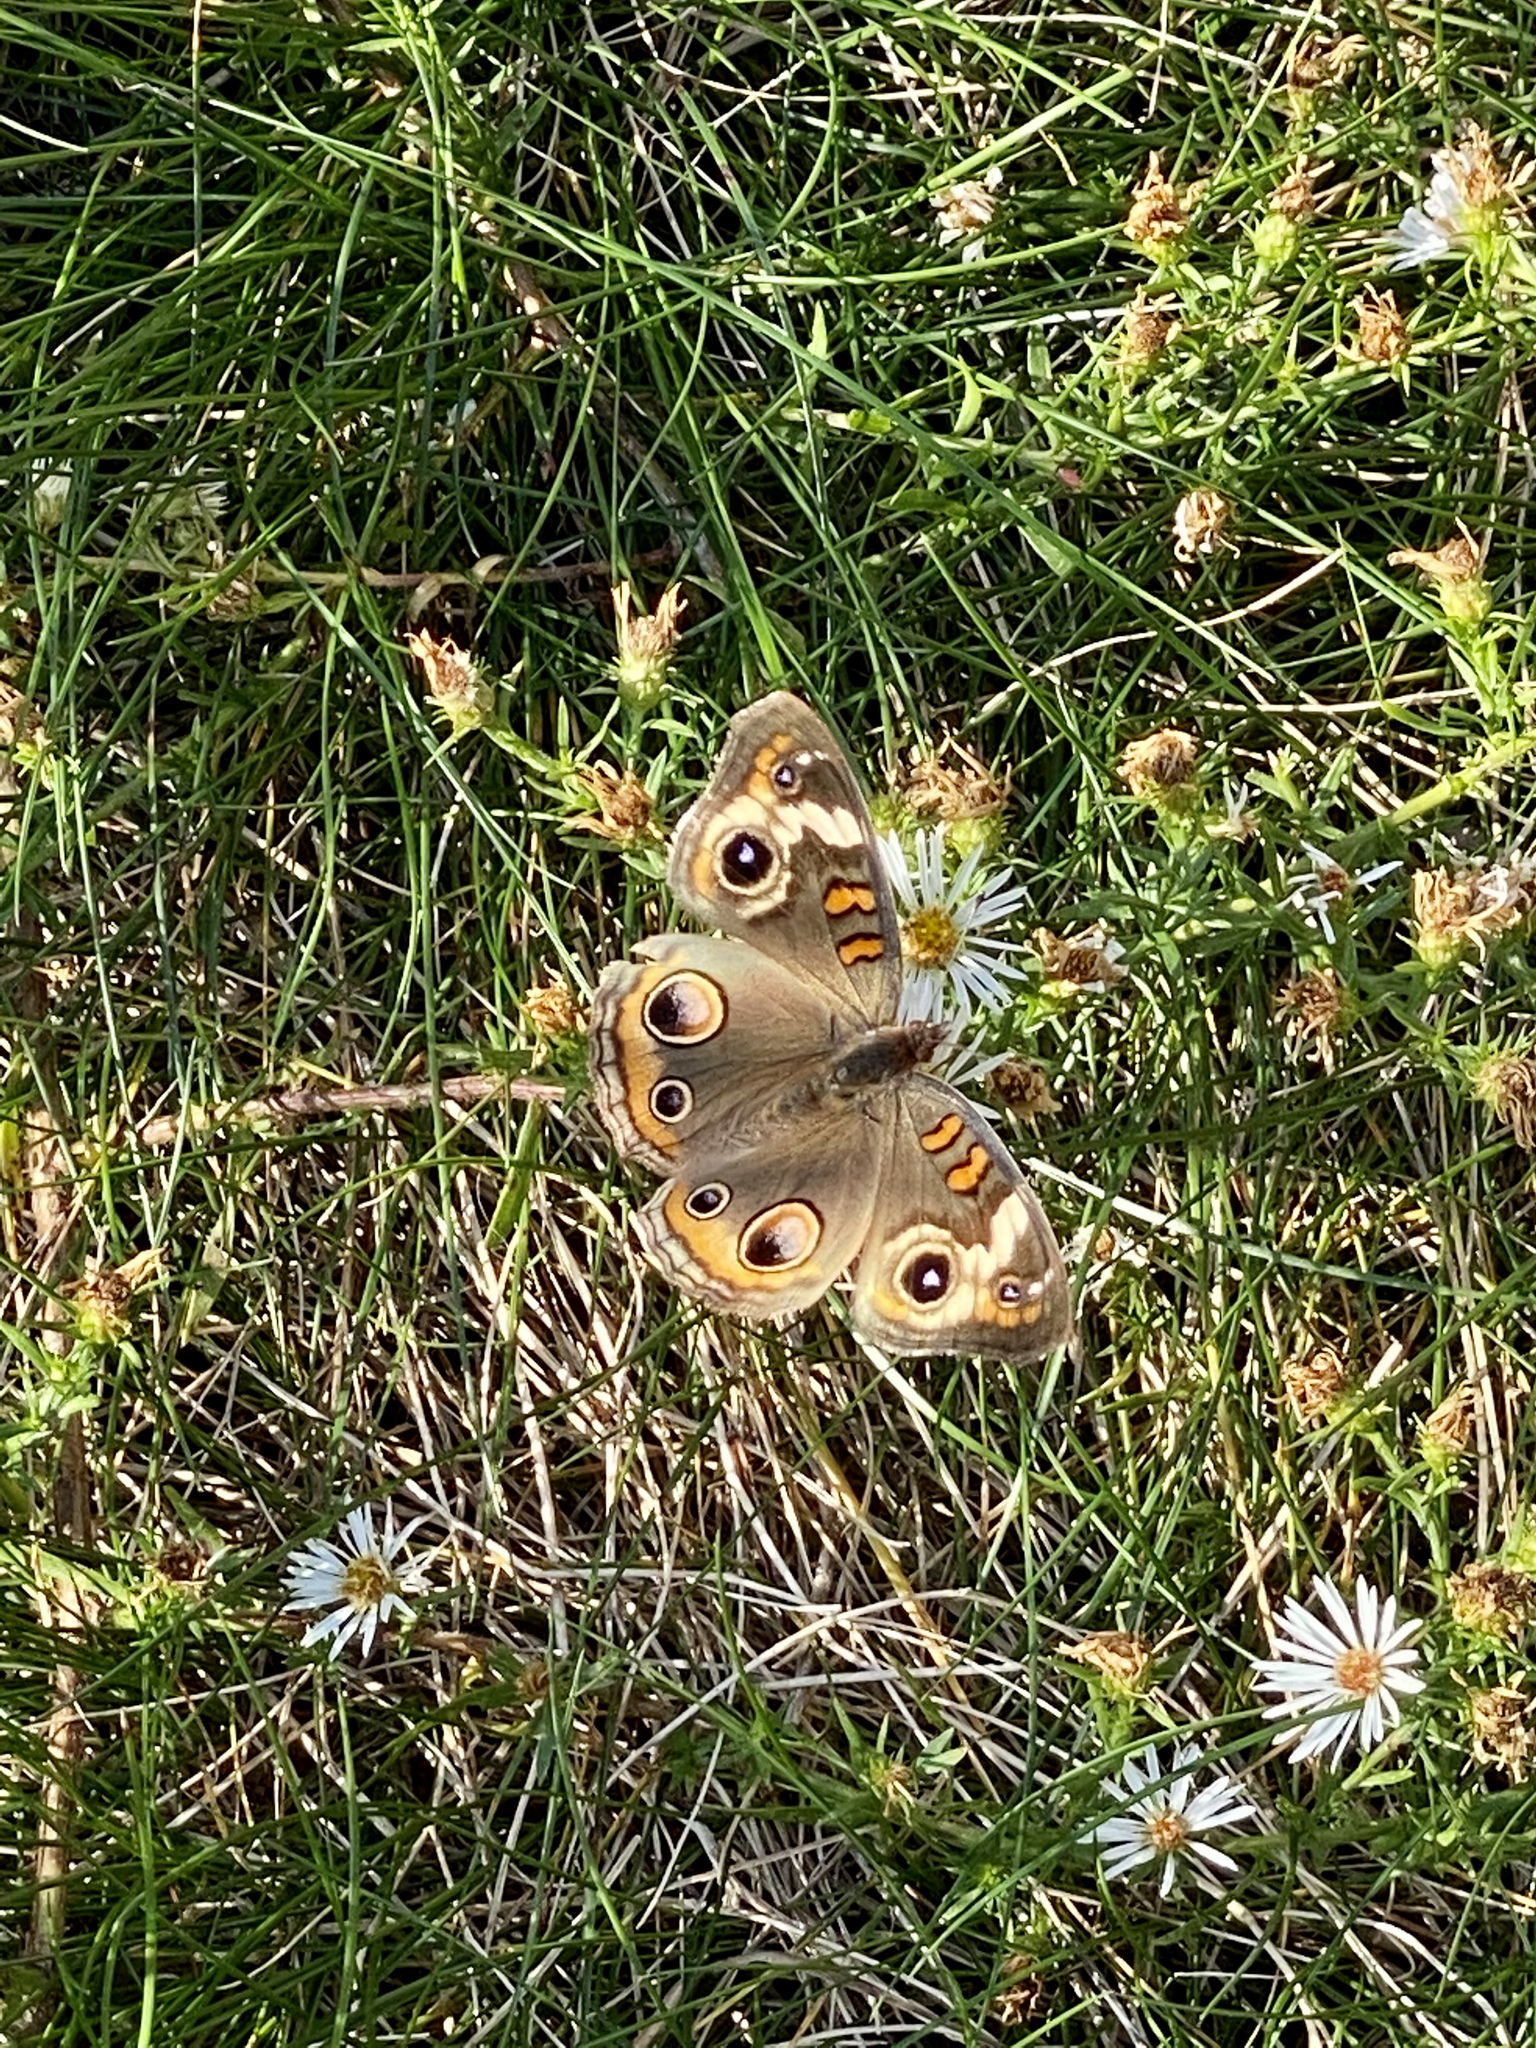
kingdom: Animalia
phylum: Arthropoda
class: Insecta
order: Lepidoptera
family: Nymphalidae
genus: Junonia
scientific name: Junonia coenia
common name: Common buckeye
